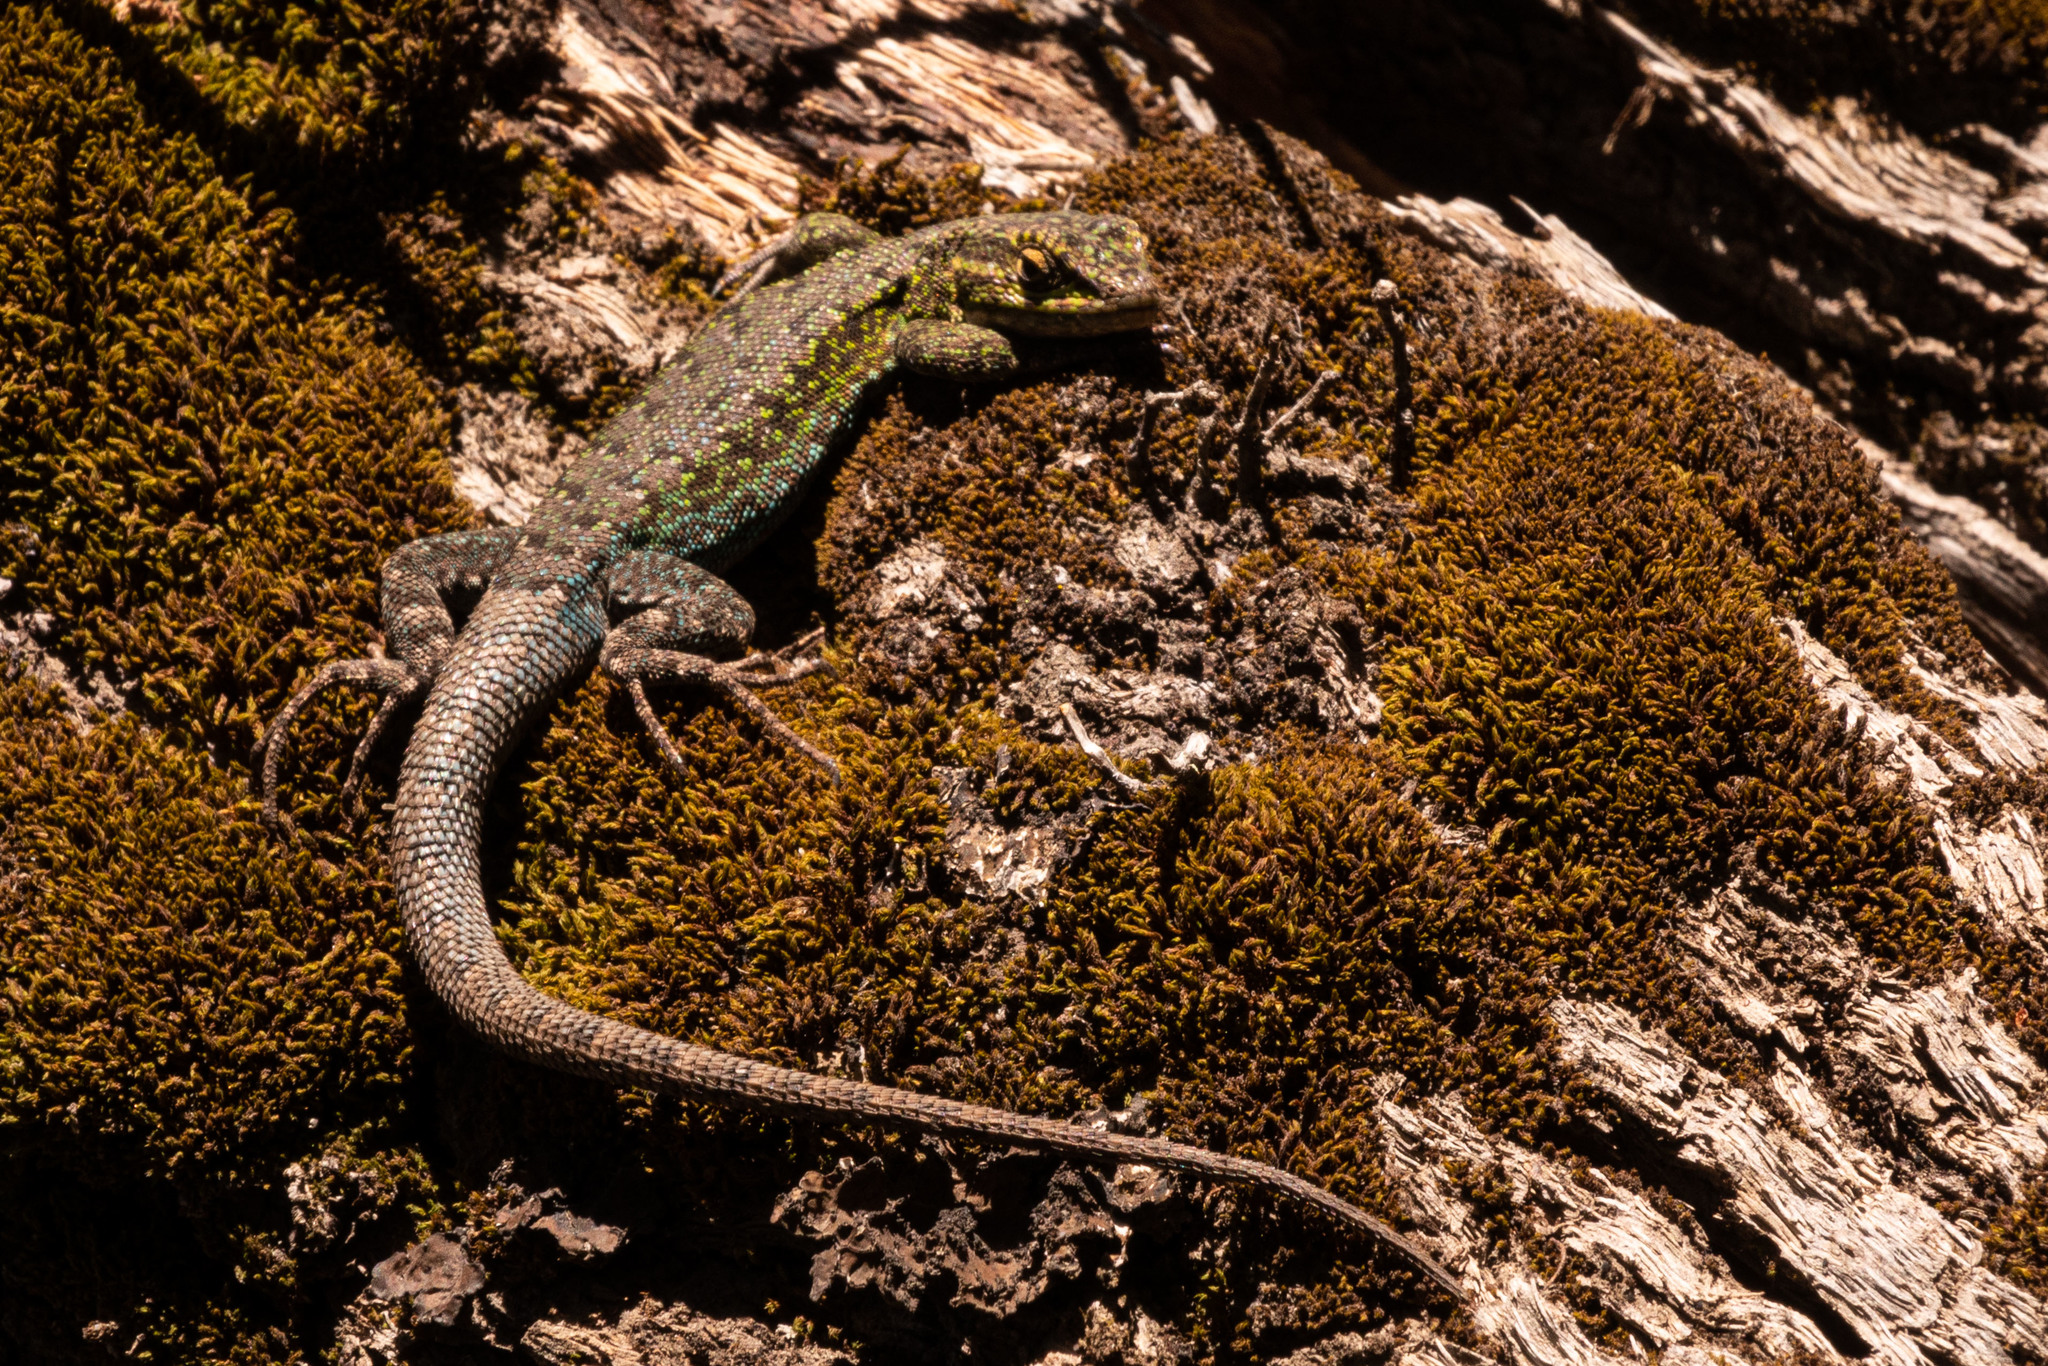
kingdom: Animalia
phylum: Chordata
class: Squamata
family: Liolaemidae
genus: Liolaemus
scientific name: Liolaemus tenuis
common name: Thin tree iguana
